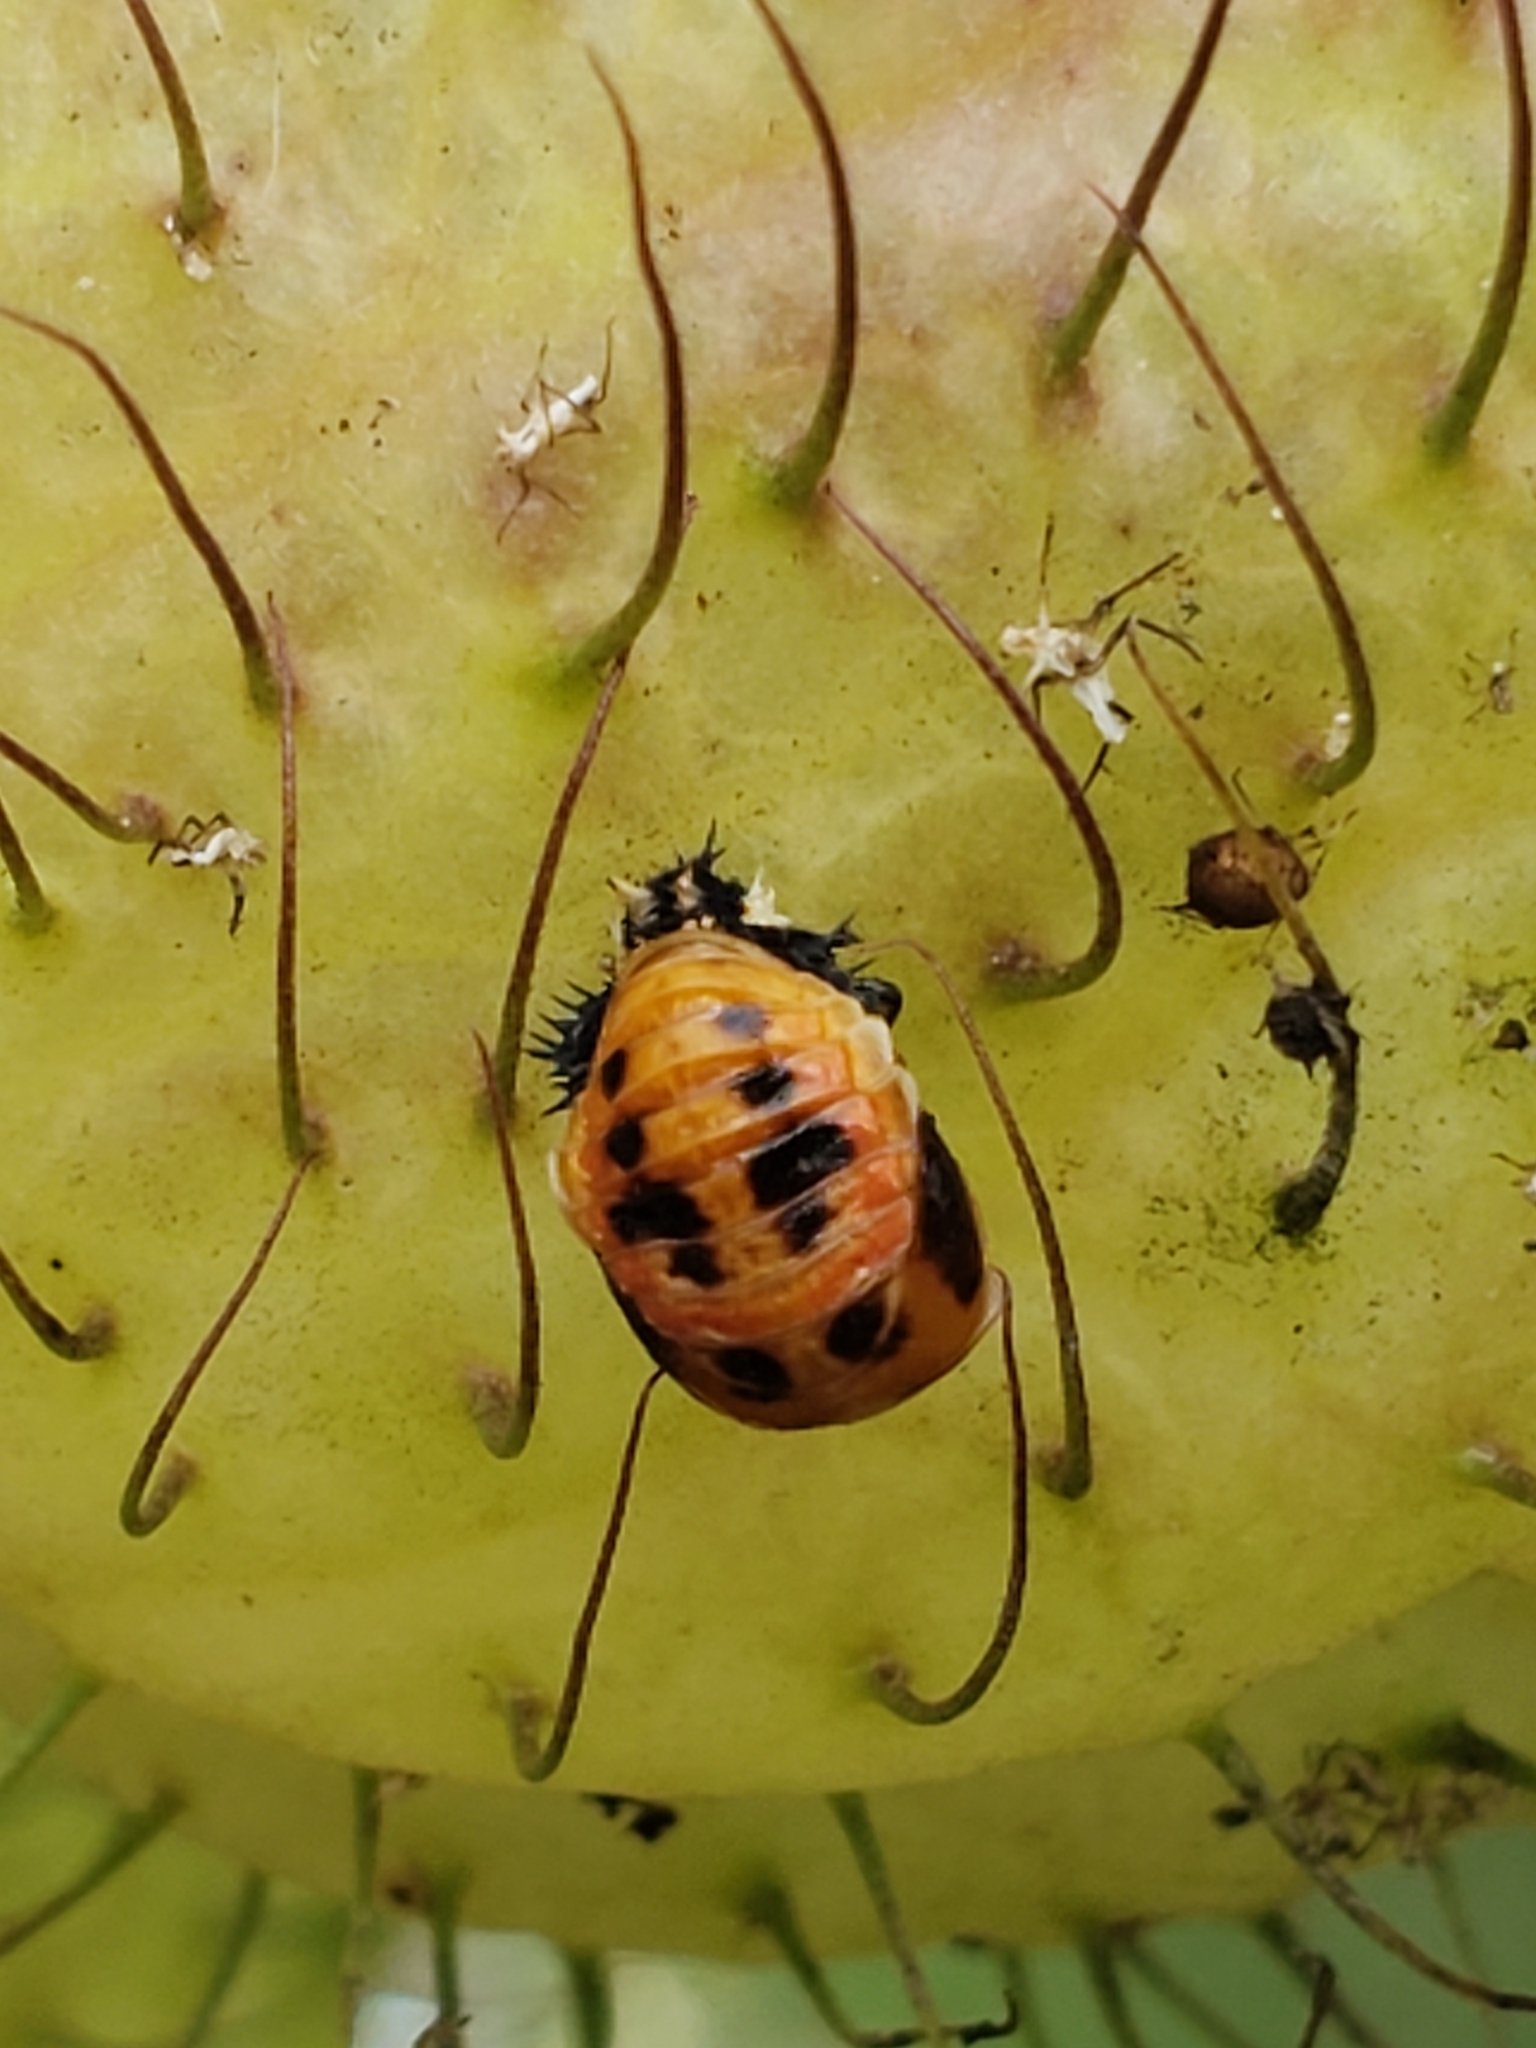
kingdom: Animalia
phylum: Arthropoda
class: Insecta
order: Coleoptera
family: Coccinellidae
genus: Harmonia
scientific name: Harmonia axyridis
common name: Harlequin ladybird
